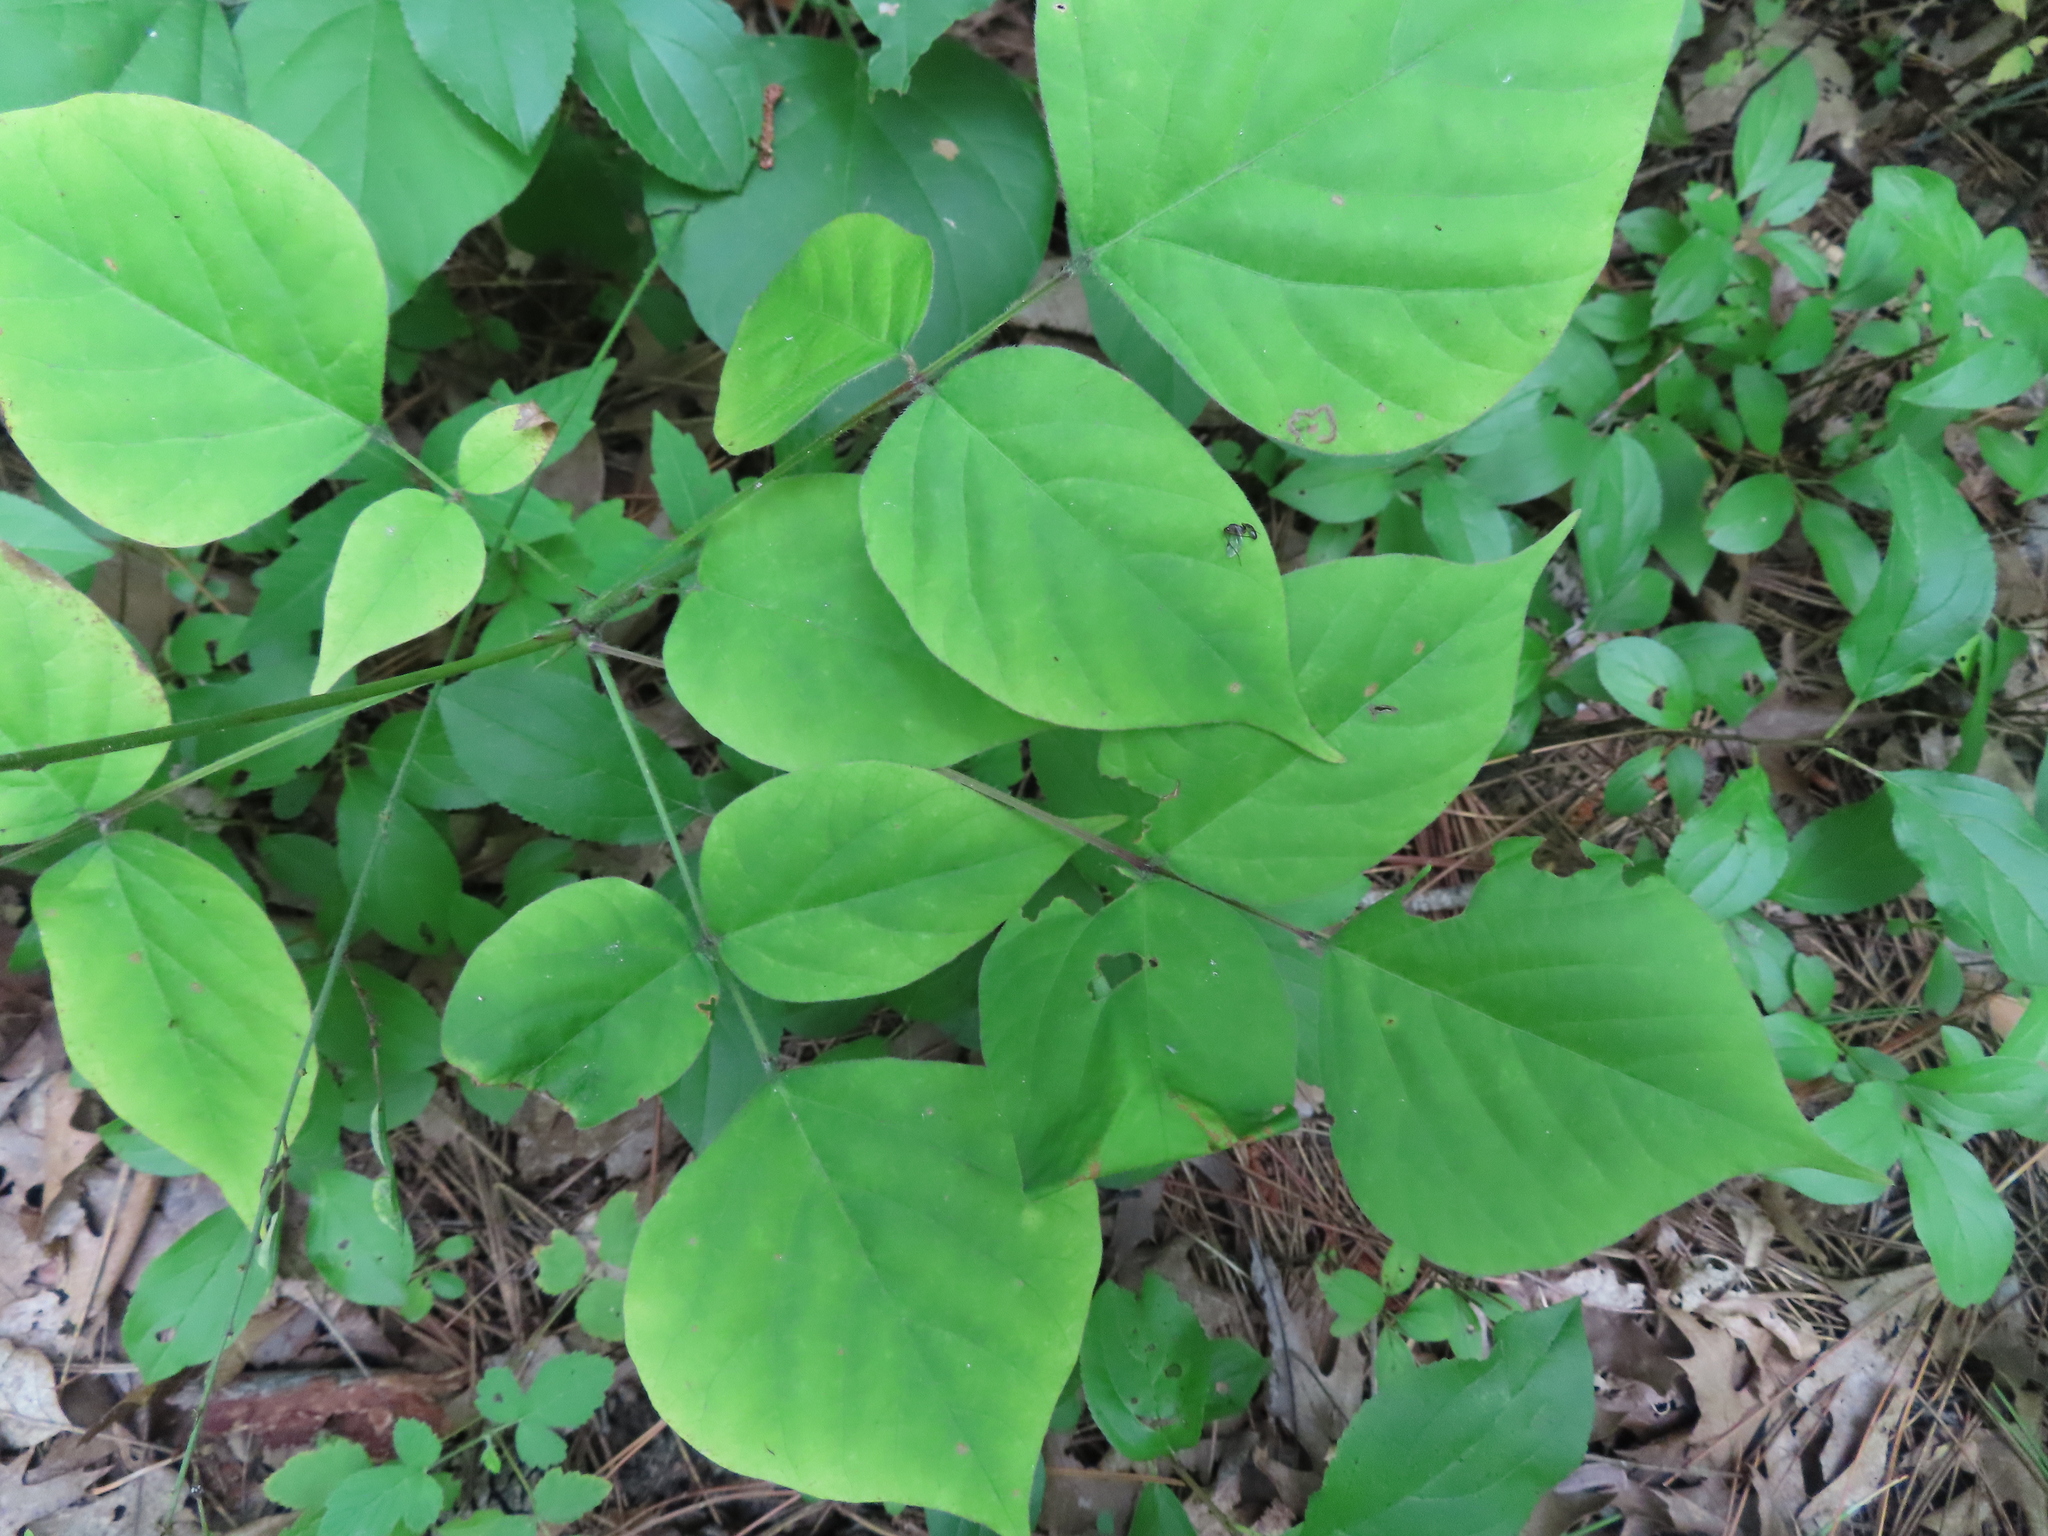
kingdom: Plantae
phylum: Tracheophyta
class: Magnoliopsida
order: Fabales
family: Fabaceae
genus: Hylodesmum
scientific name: Hylodesmum glutinosum
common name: Clustered-leaved tick-trefoil
